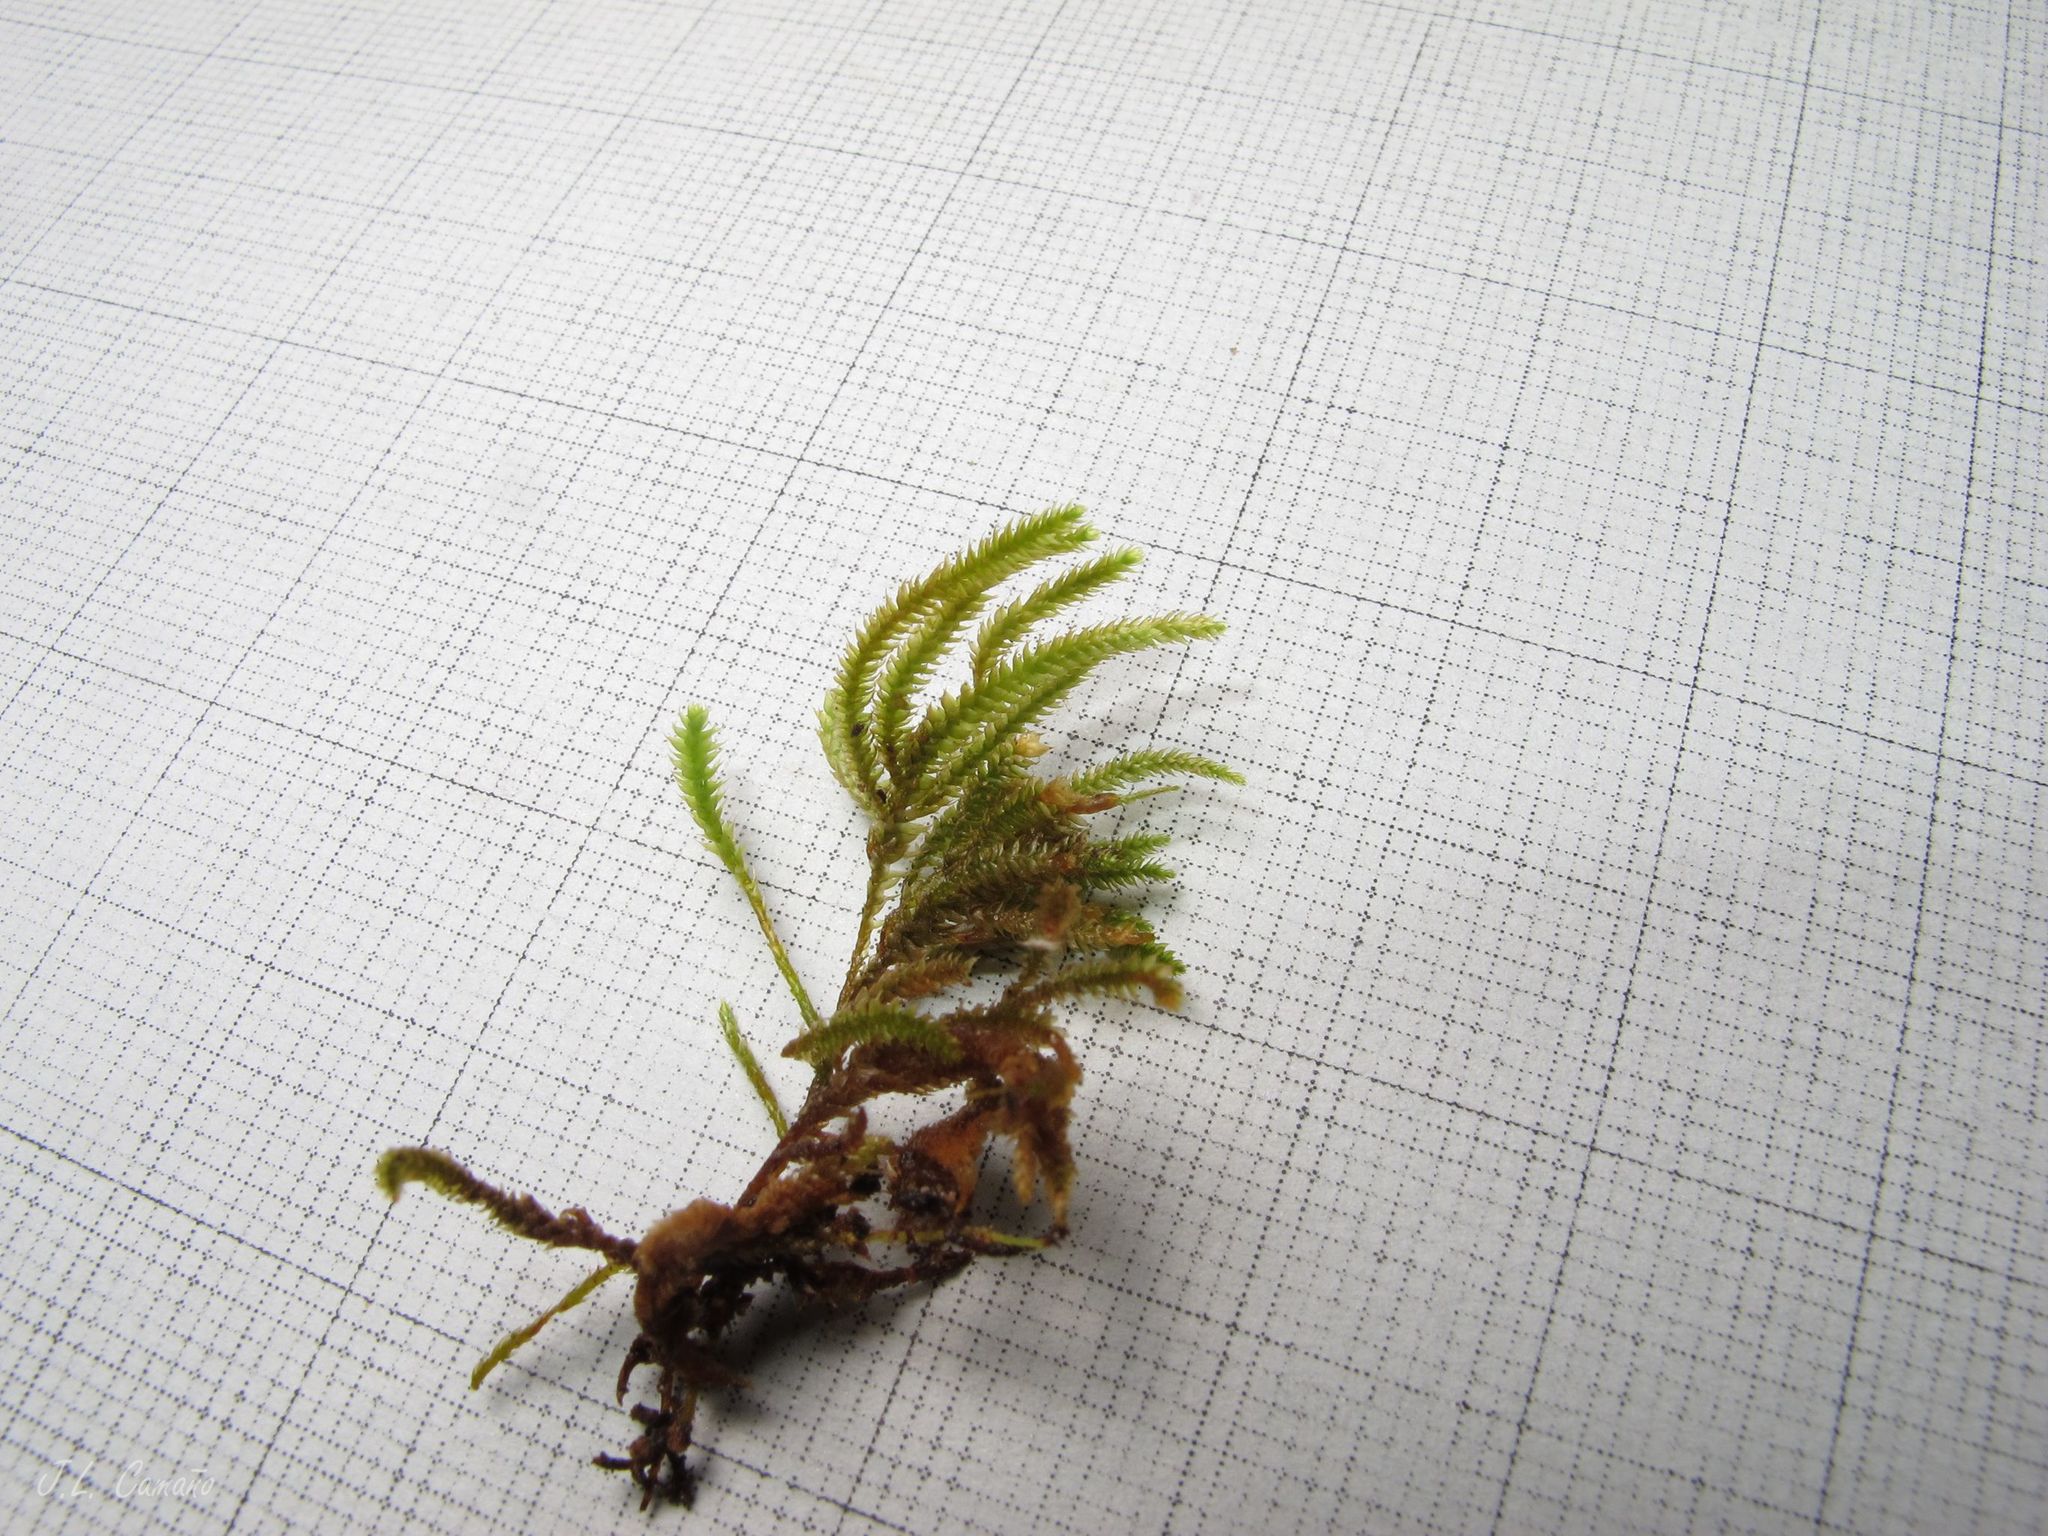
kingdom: Plantae
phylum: Bryophyta
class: Bryopsida
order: Hypnales
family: Lembophyllaceae
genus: Nogopterium
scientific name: Nogopterium gracile
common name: Bird's-foot wing-moss
